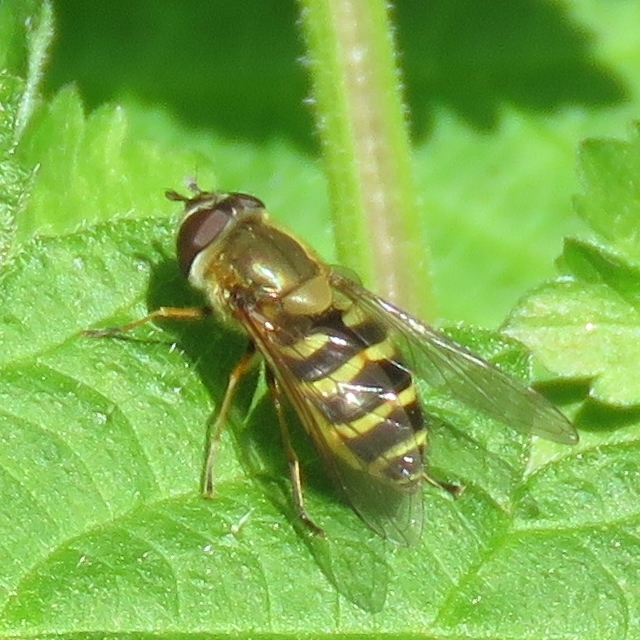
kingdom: Animalia
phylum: Arthropoda
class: Insecta
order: Diptera
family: Syrphidae
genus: Syrphus
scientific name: Syrphus
